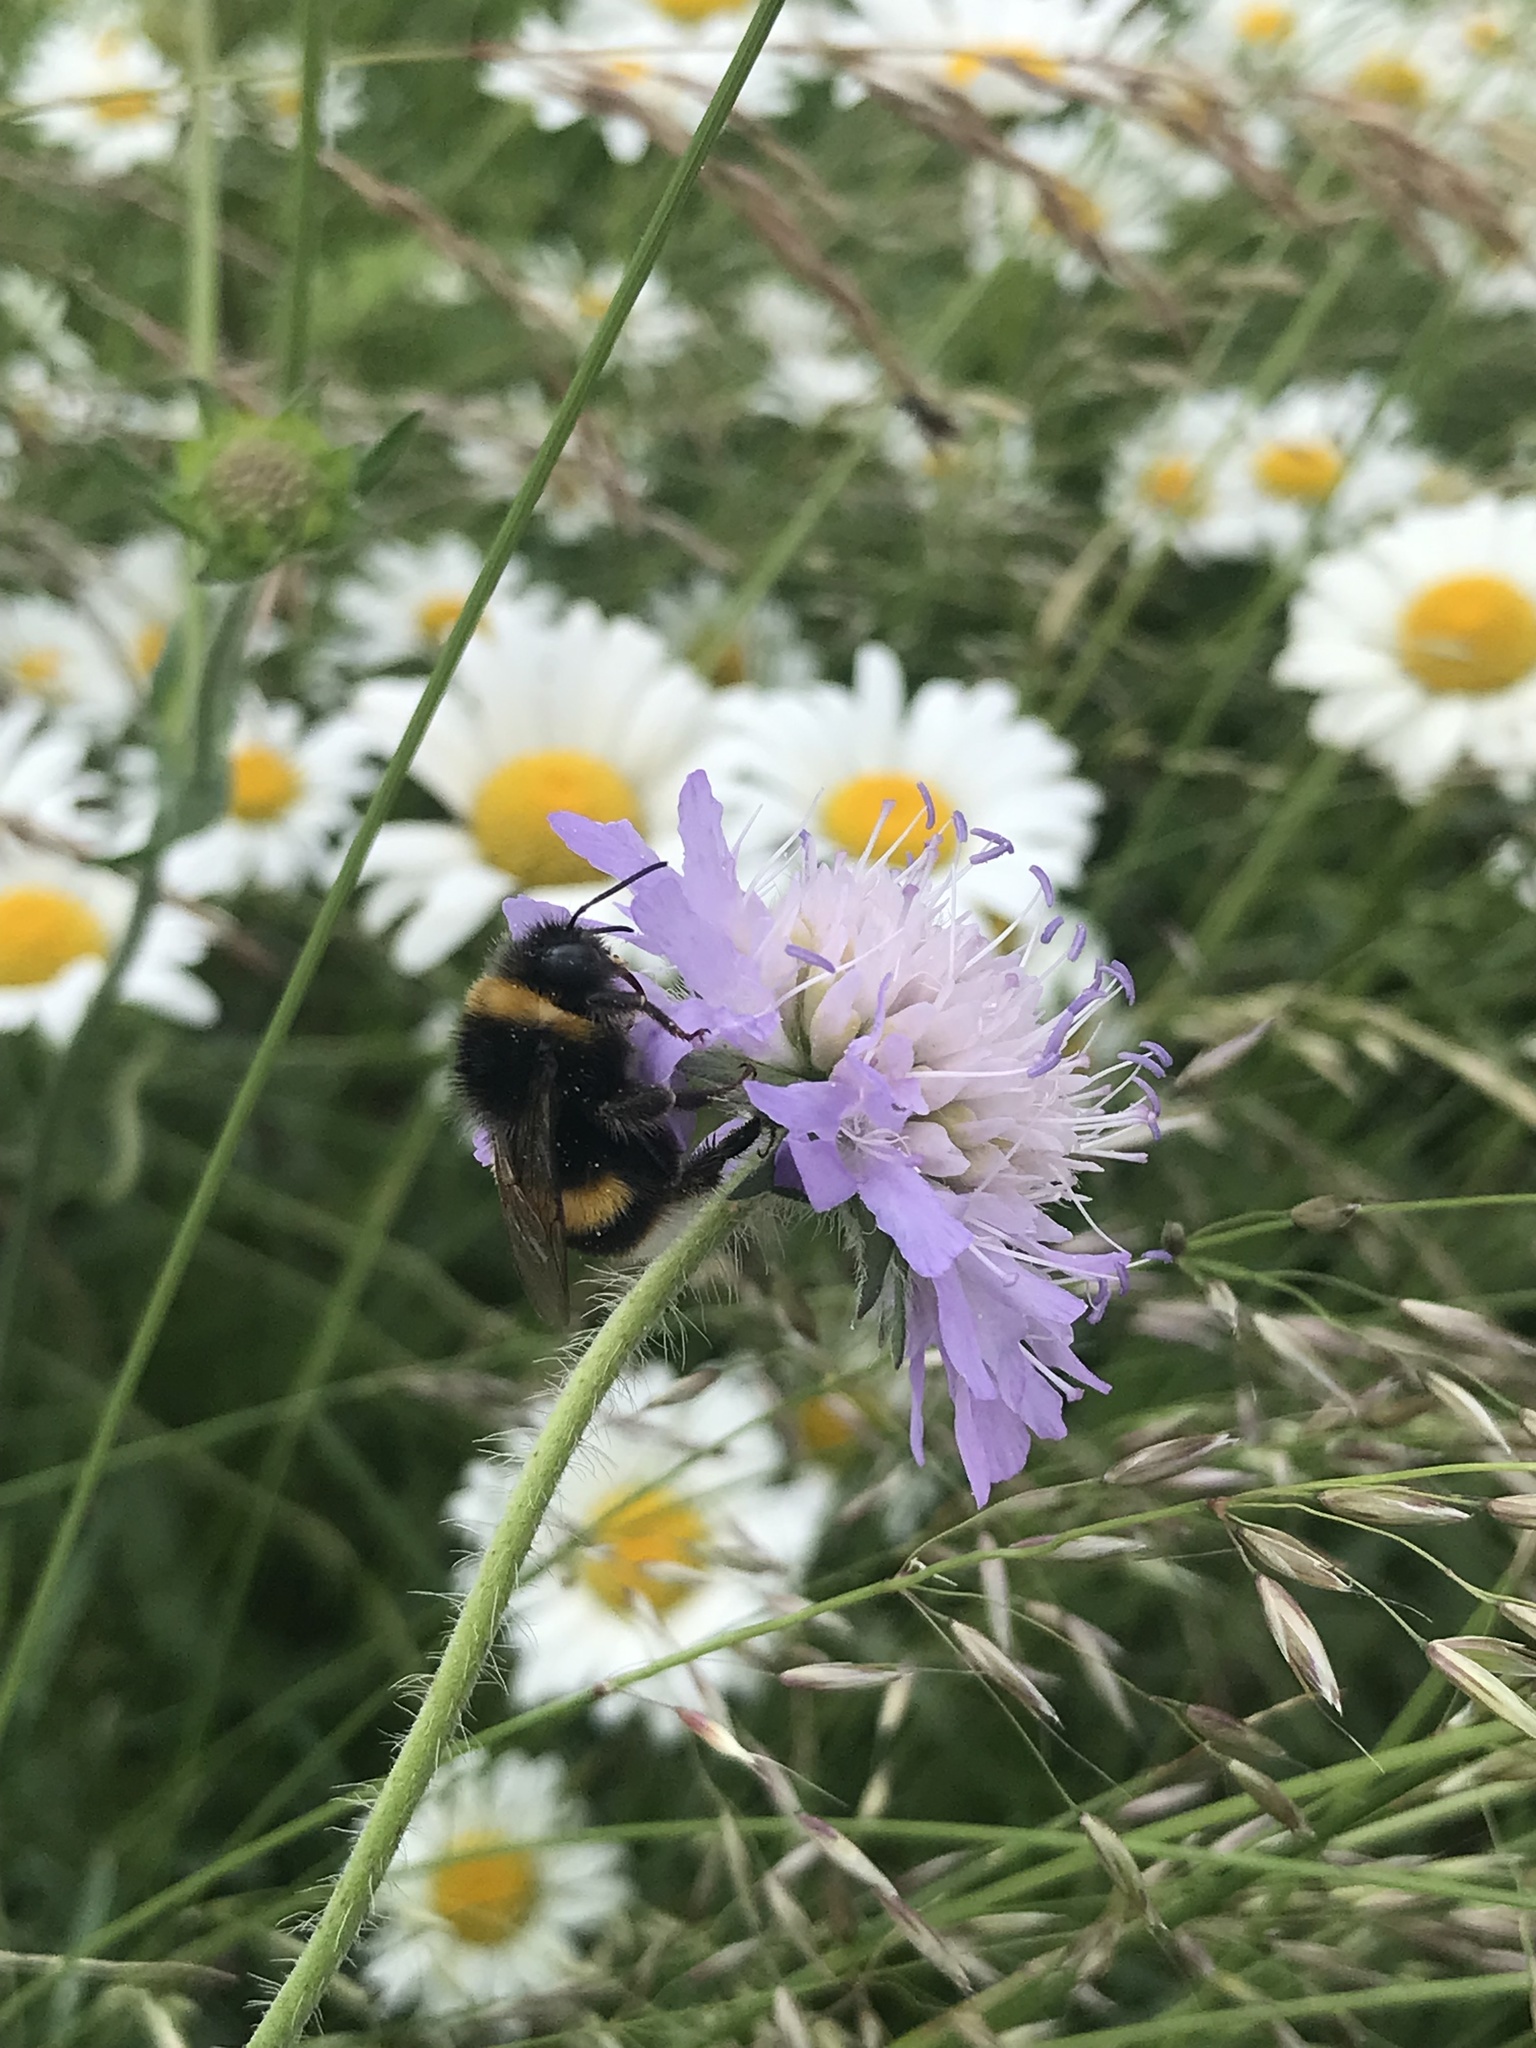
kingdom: Plantae
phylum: Tracheophyta
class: Magnoliopsida
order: Dipsacales
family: Caprifoliaceae
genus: Knautia
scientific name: Knautia arvensis
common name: Field scabiosa
